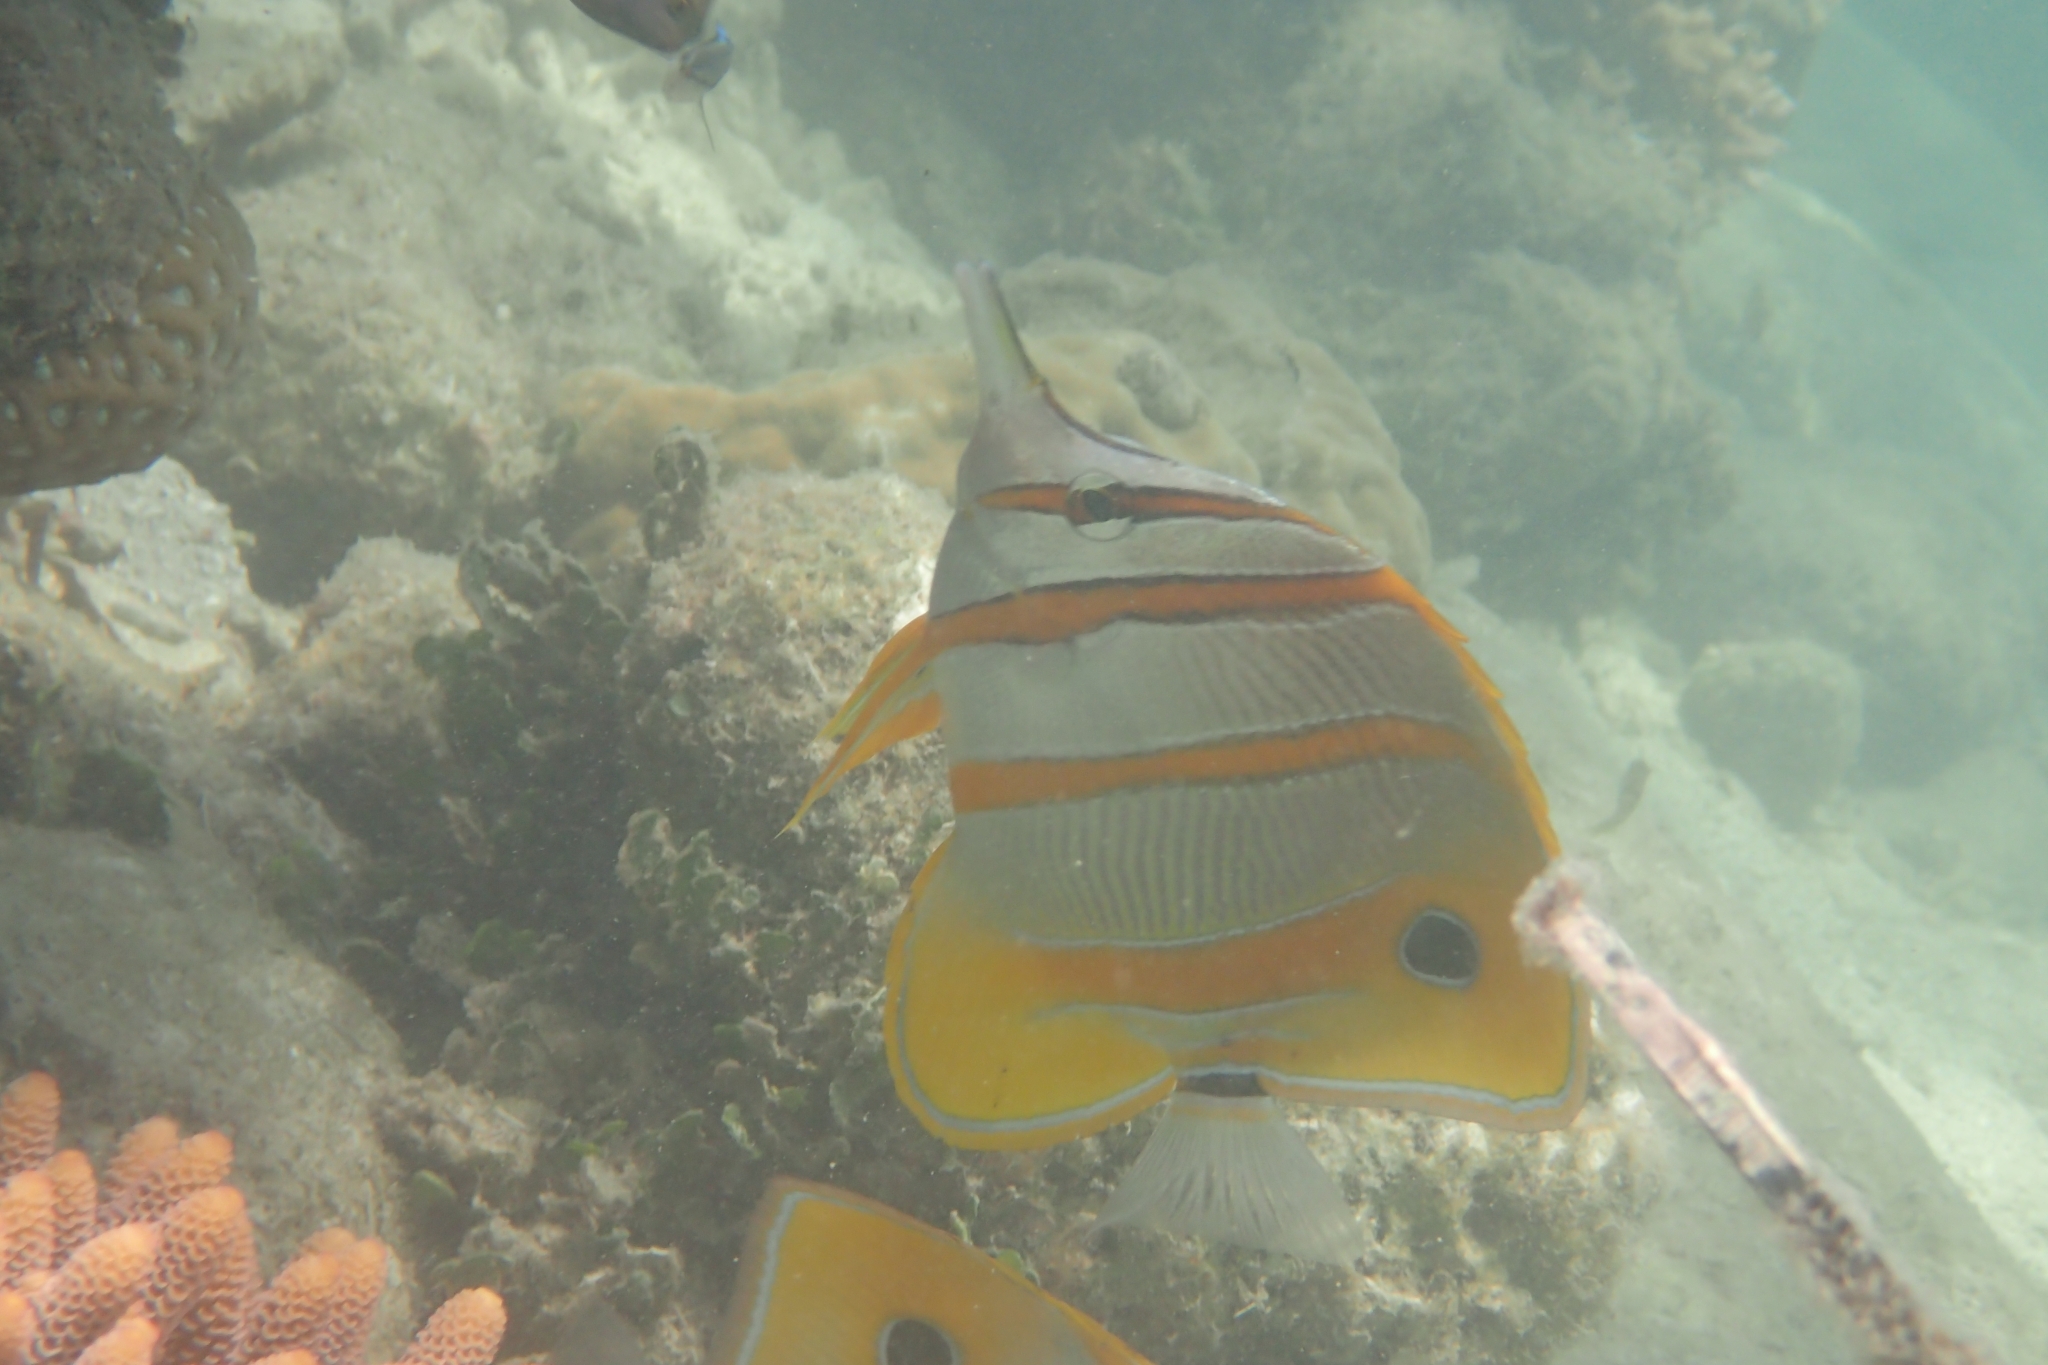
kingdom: Animalia
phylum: Chordata
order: Perciformes
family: Chaetodontidae
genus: Chelmon
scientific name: Chelmon rostratus
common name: Beaked butterflyfish
